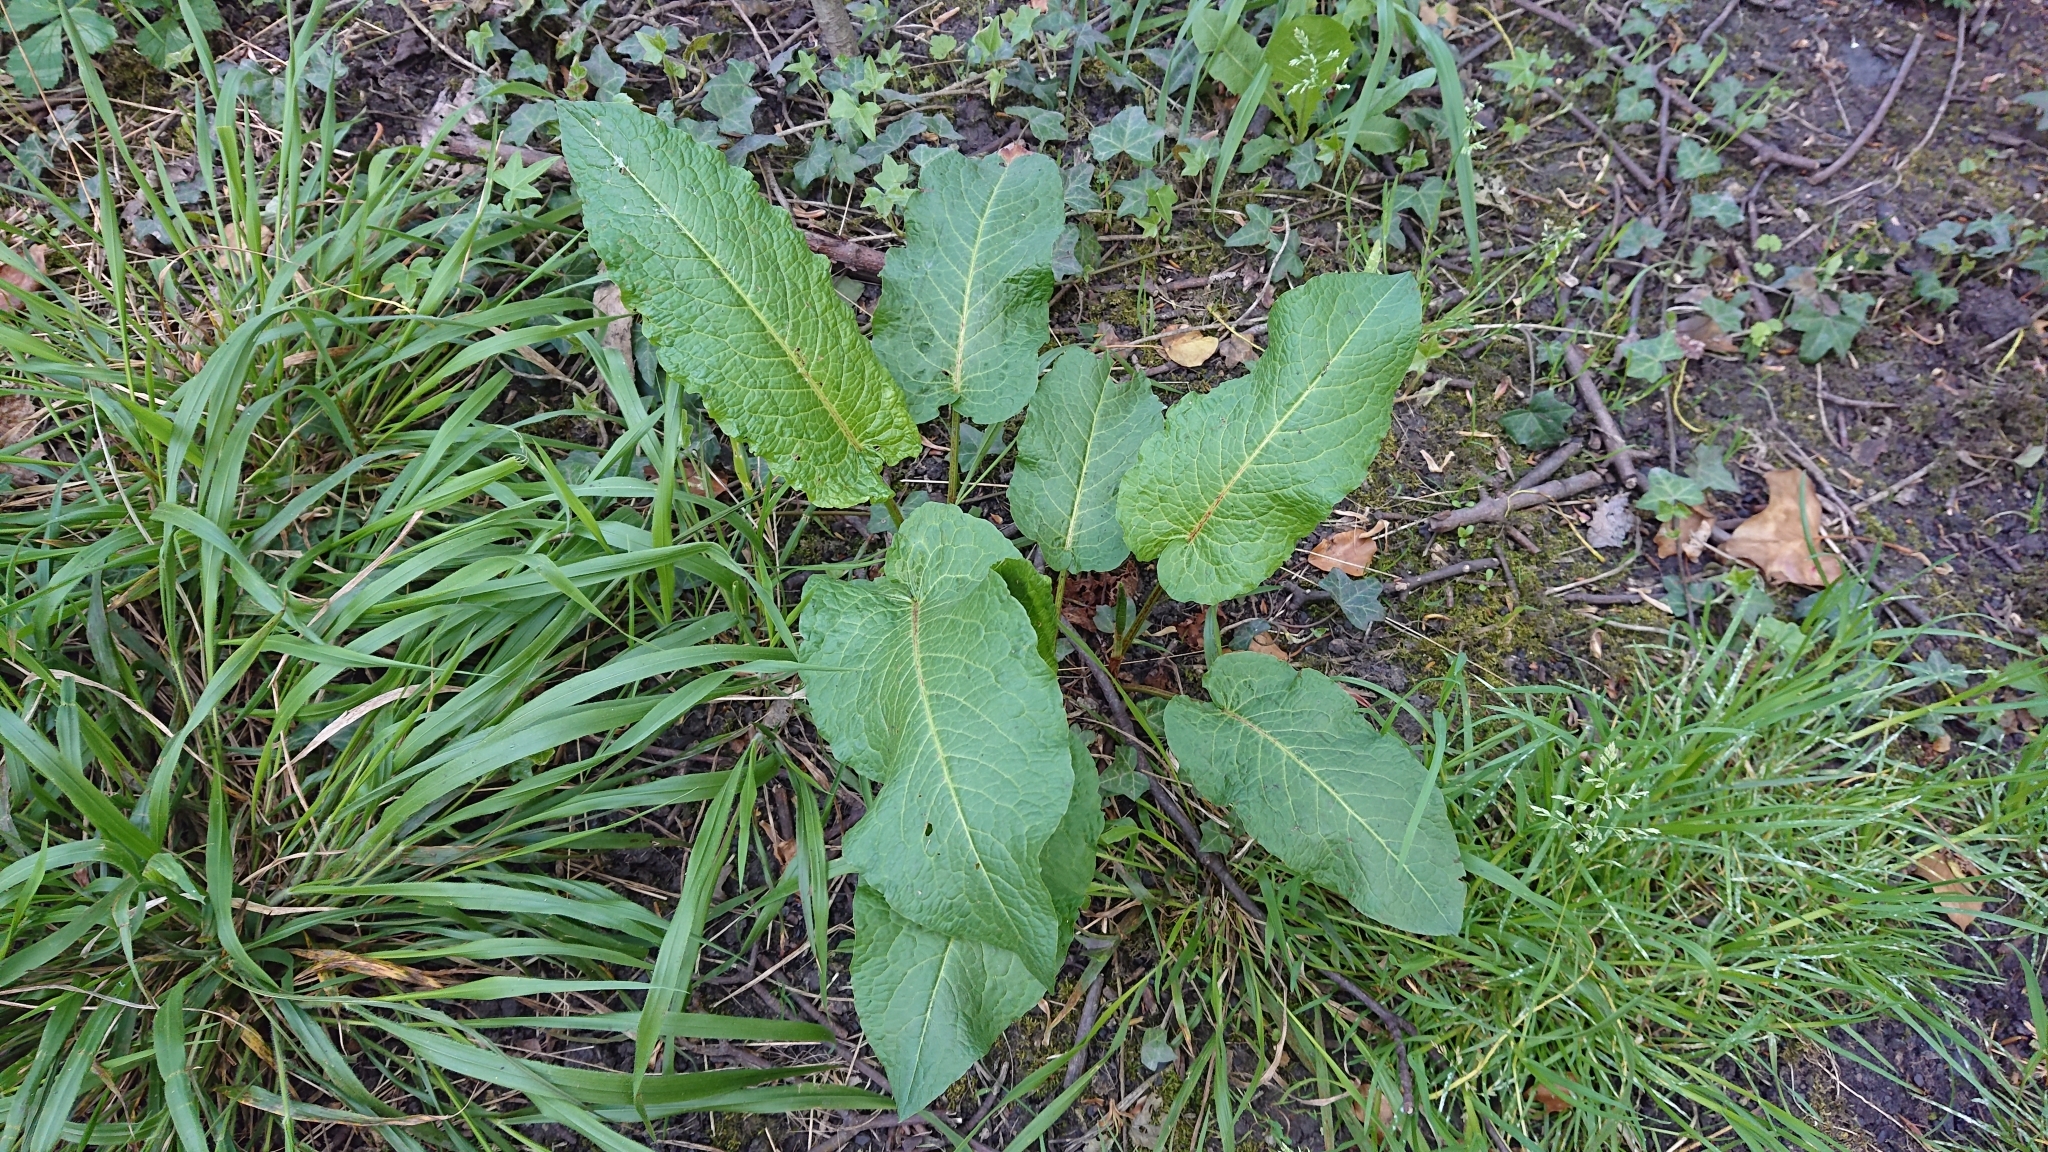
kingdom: Plantae
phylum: Tracheophyta
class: Magnoliopsida
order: Caryophyllales
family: Polygonaceae
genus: Rumex
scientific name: Rumex obtusifolius
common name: Bitter dock
